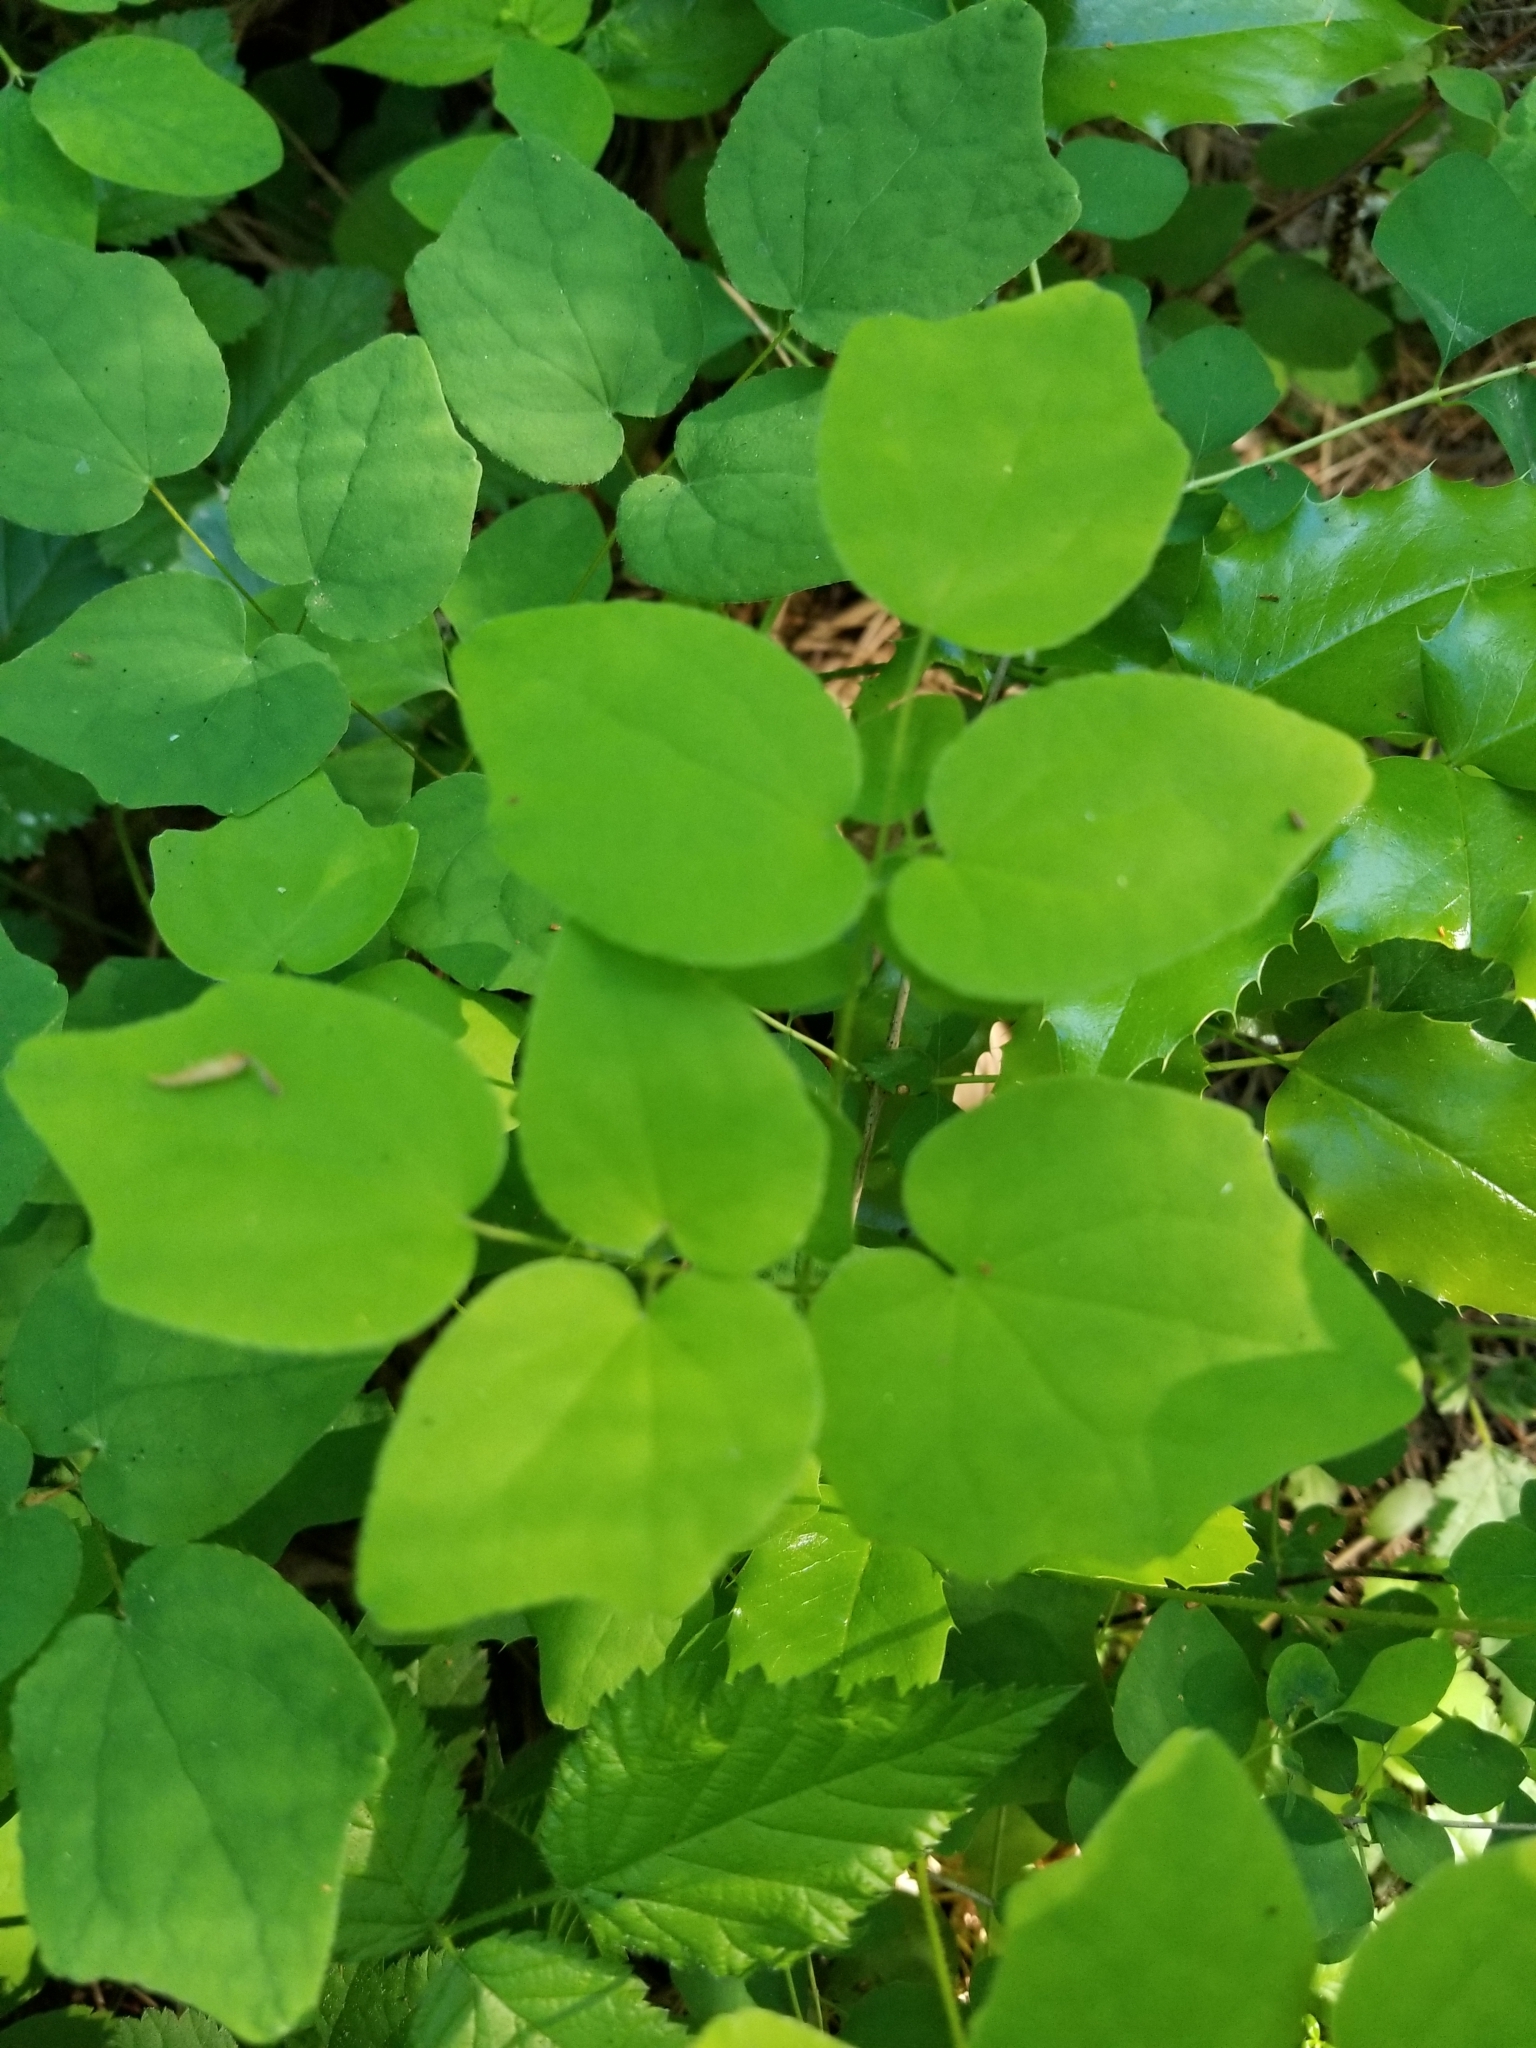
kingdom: Plantae
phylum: Tracheophyta
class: Magnoliopsida
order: Ranunculales
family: Berberidaceae
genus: Vancouveria
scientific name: Vancouveria hexandra
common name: Northern inside-out-flower
